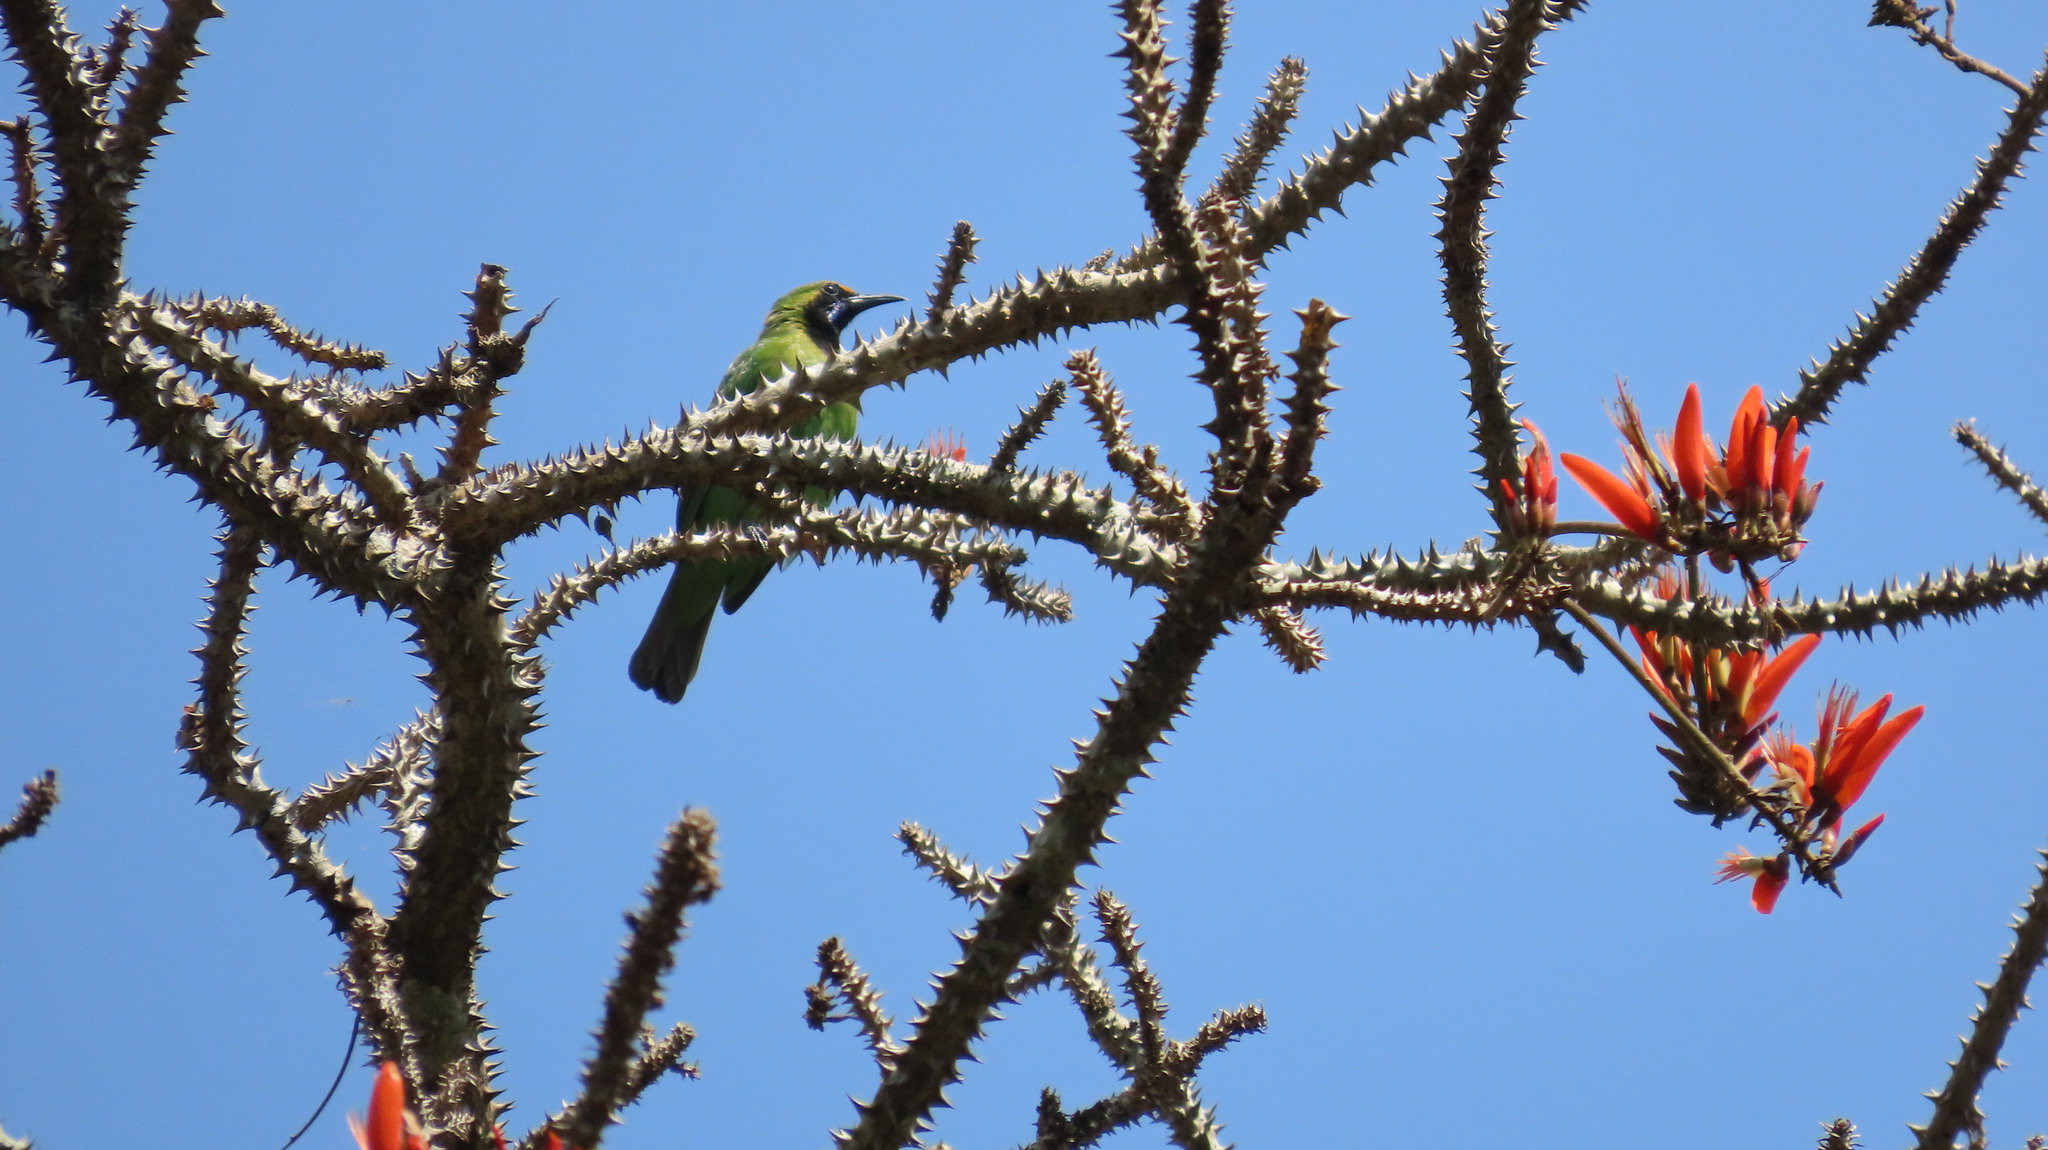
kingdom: Animalia
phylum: Chordata
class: Aves
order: Passeriformes
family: Chloropseidae
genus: Chloropsis
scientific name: Chloropsis aurifrons
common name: Golden-fronted leafbird
